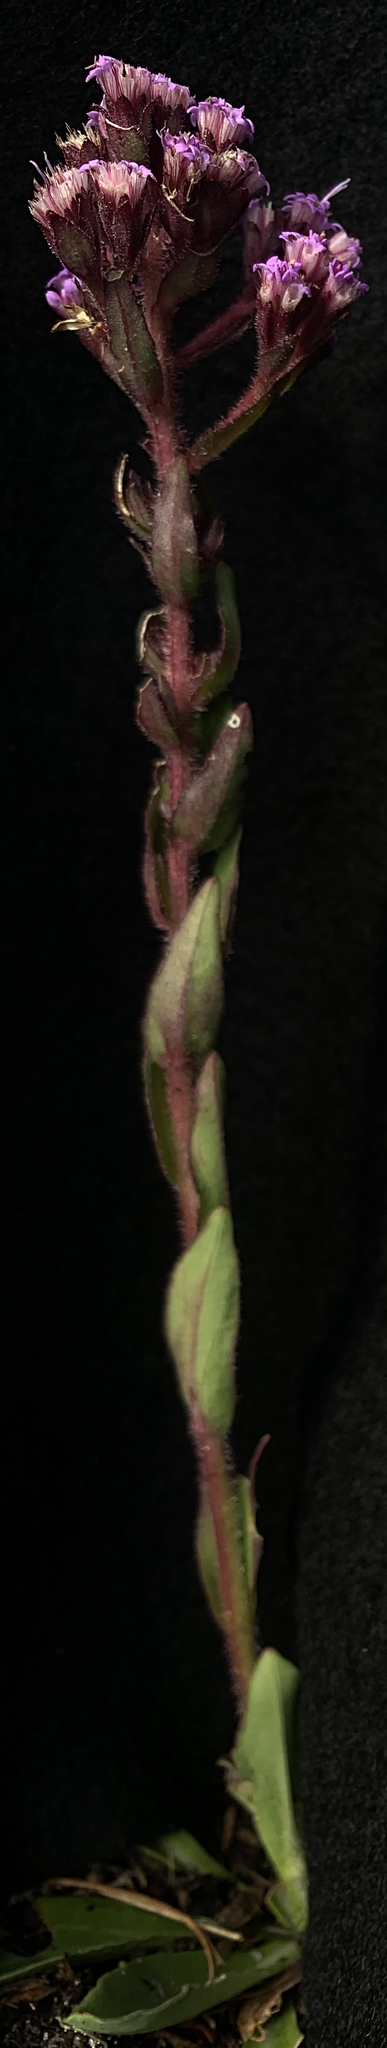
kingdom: Plantae
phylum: Tracheophyta
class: Magnoliopsida
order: Asterales
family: Asteraceae
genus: Carphephorus
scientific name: Carphephorus paniculatus
